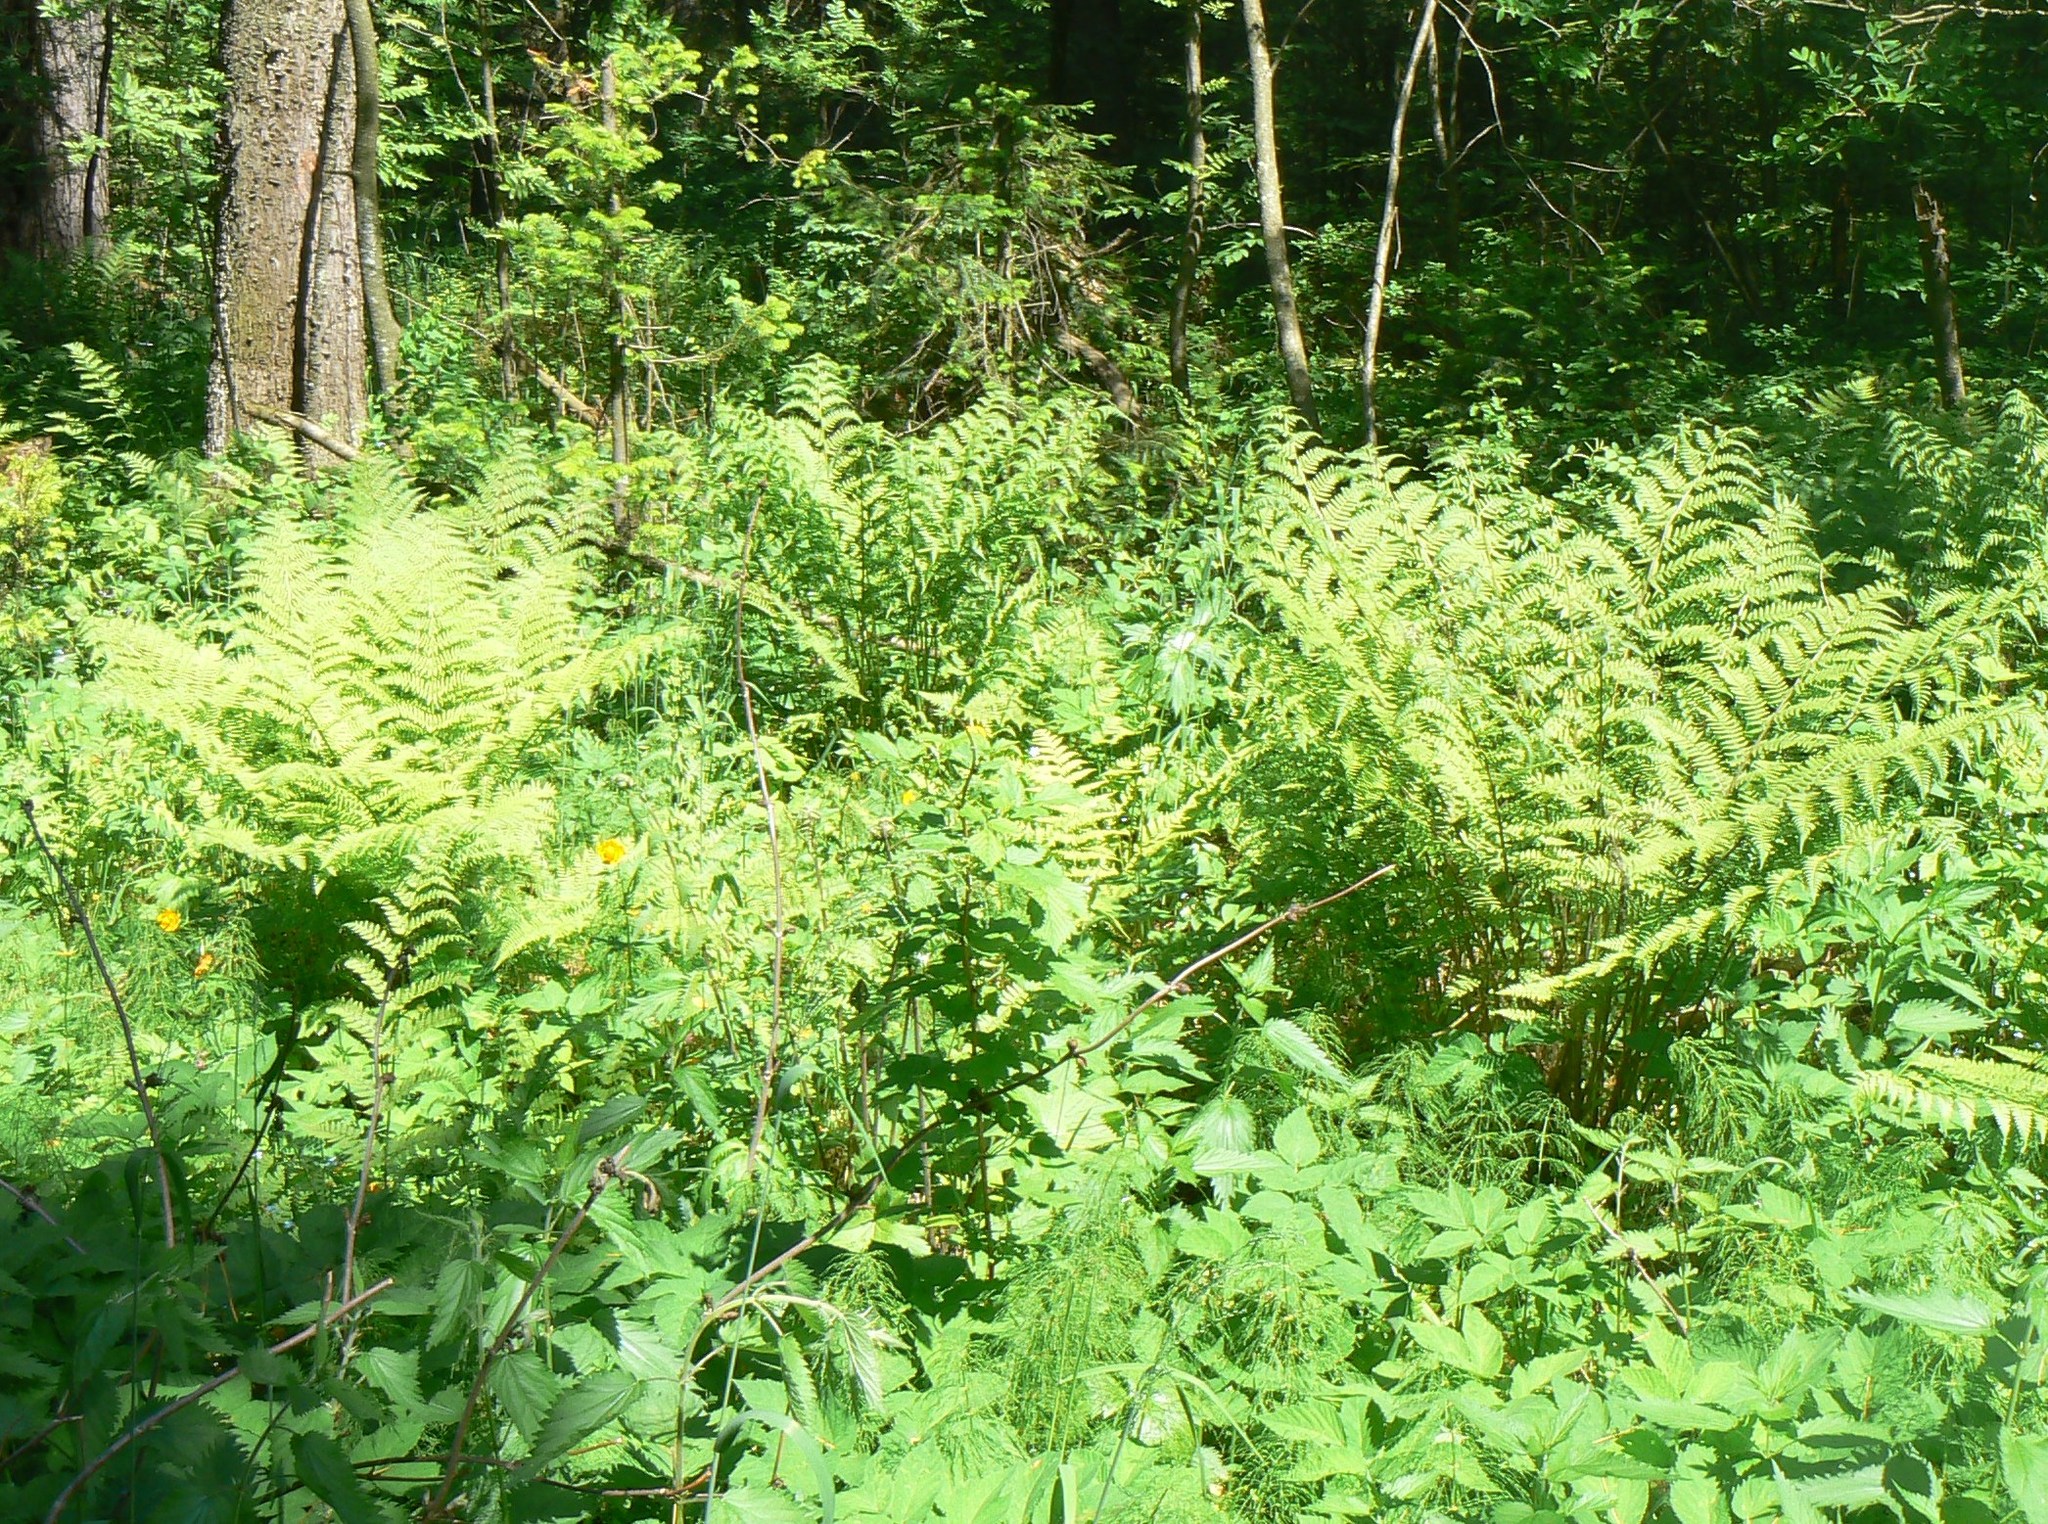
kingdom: Plantae
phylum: Tracheophyta
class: Polypodiopsida
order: Polypodiales
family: Athyriaceae
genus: Athyrium
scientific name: Athyrium filix-femina
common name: Lady fern
